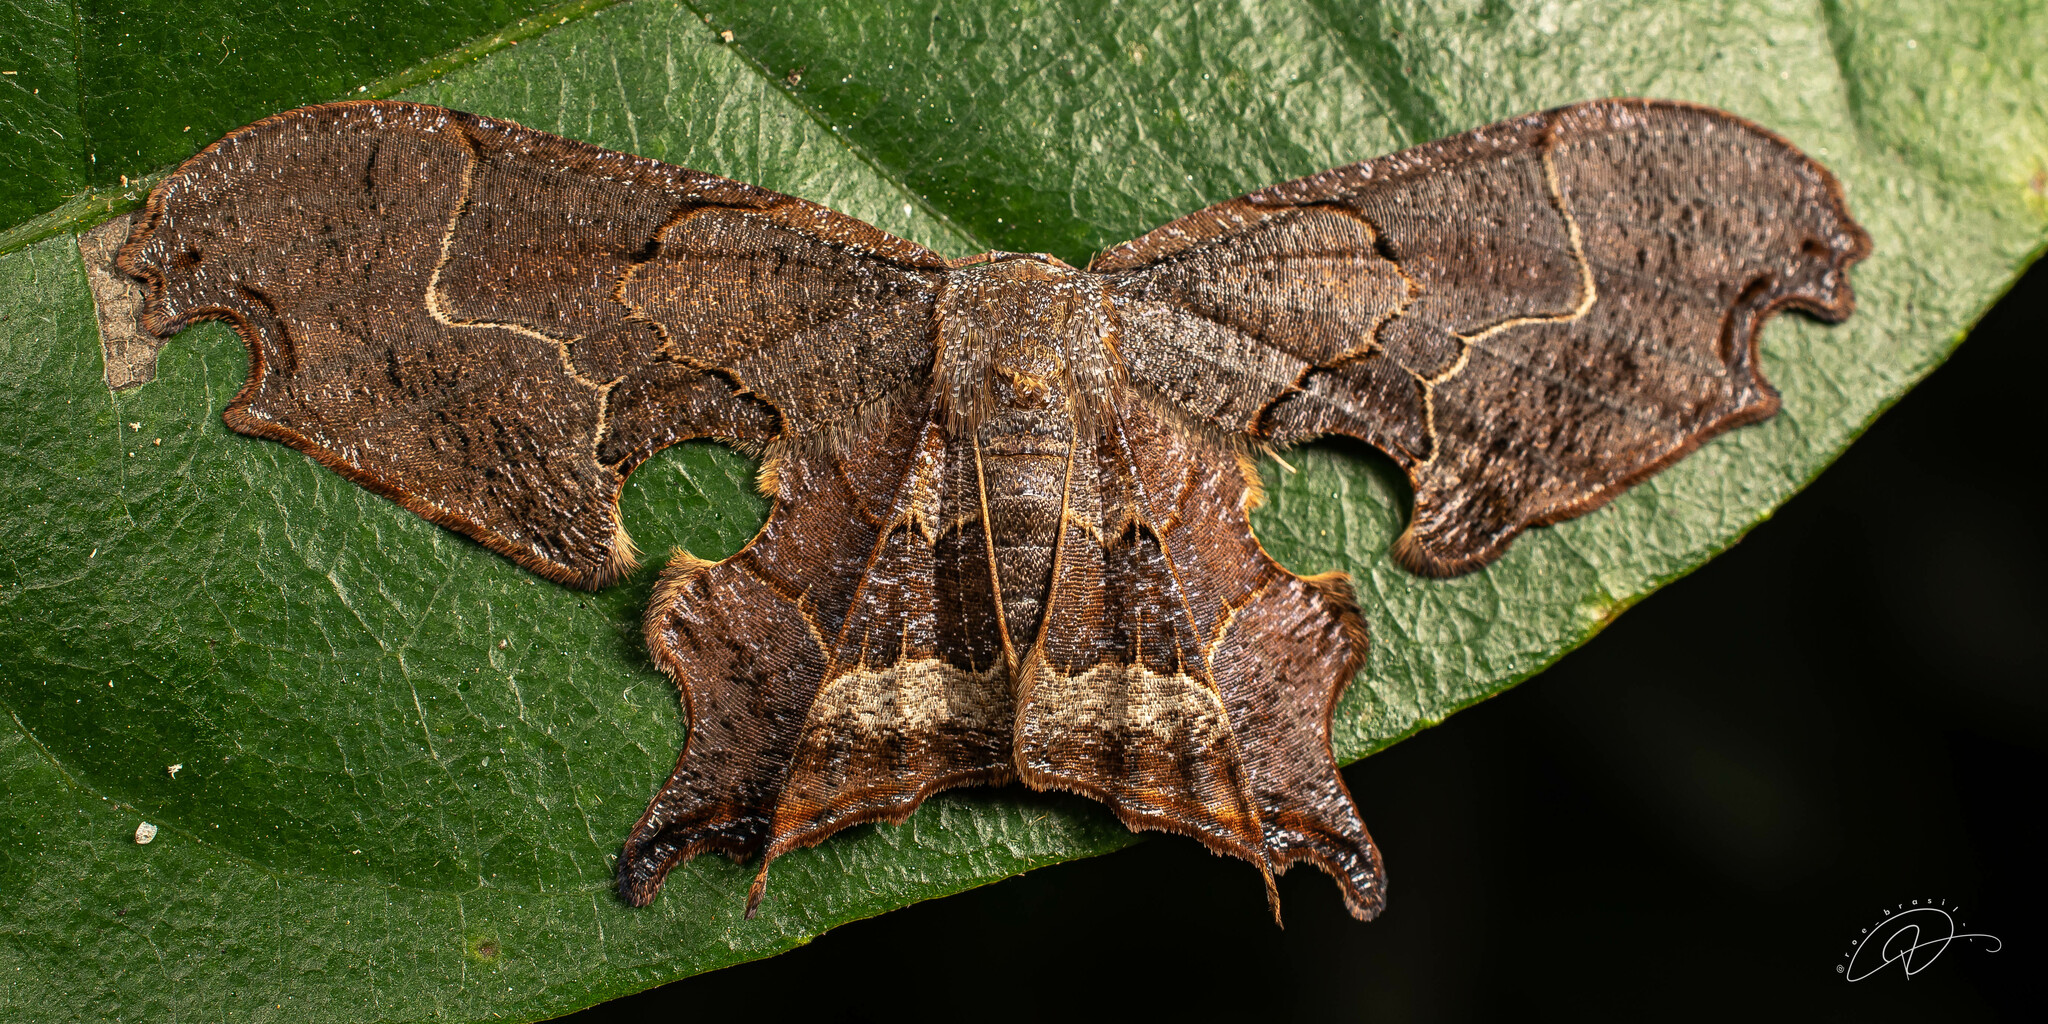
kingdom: Animalia
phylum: Arthropoda
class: Insecta
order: Lepidoptera
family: Uraniidae
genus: Epiplema
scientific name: Epiplema incendiata
